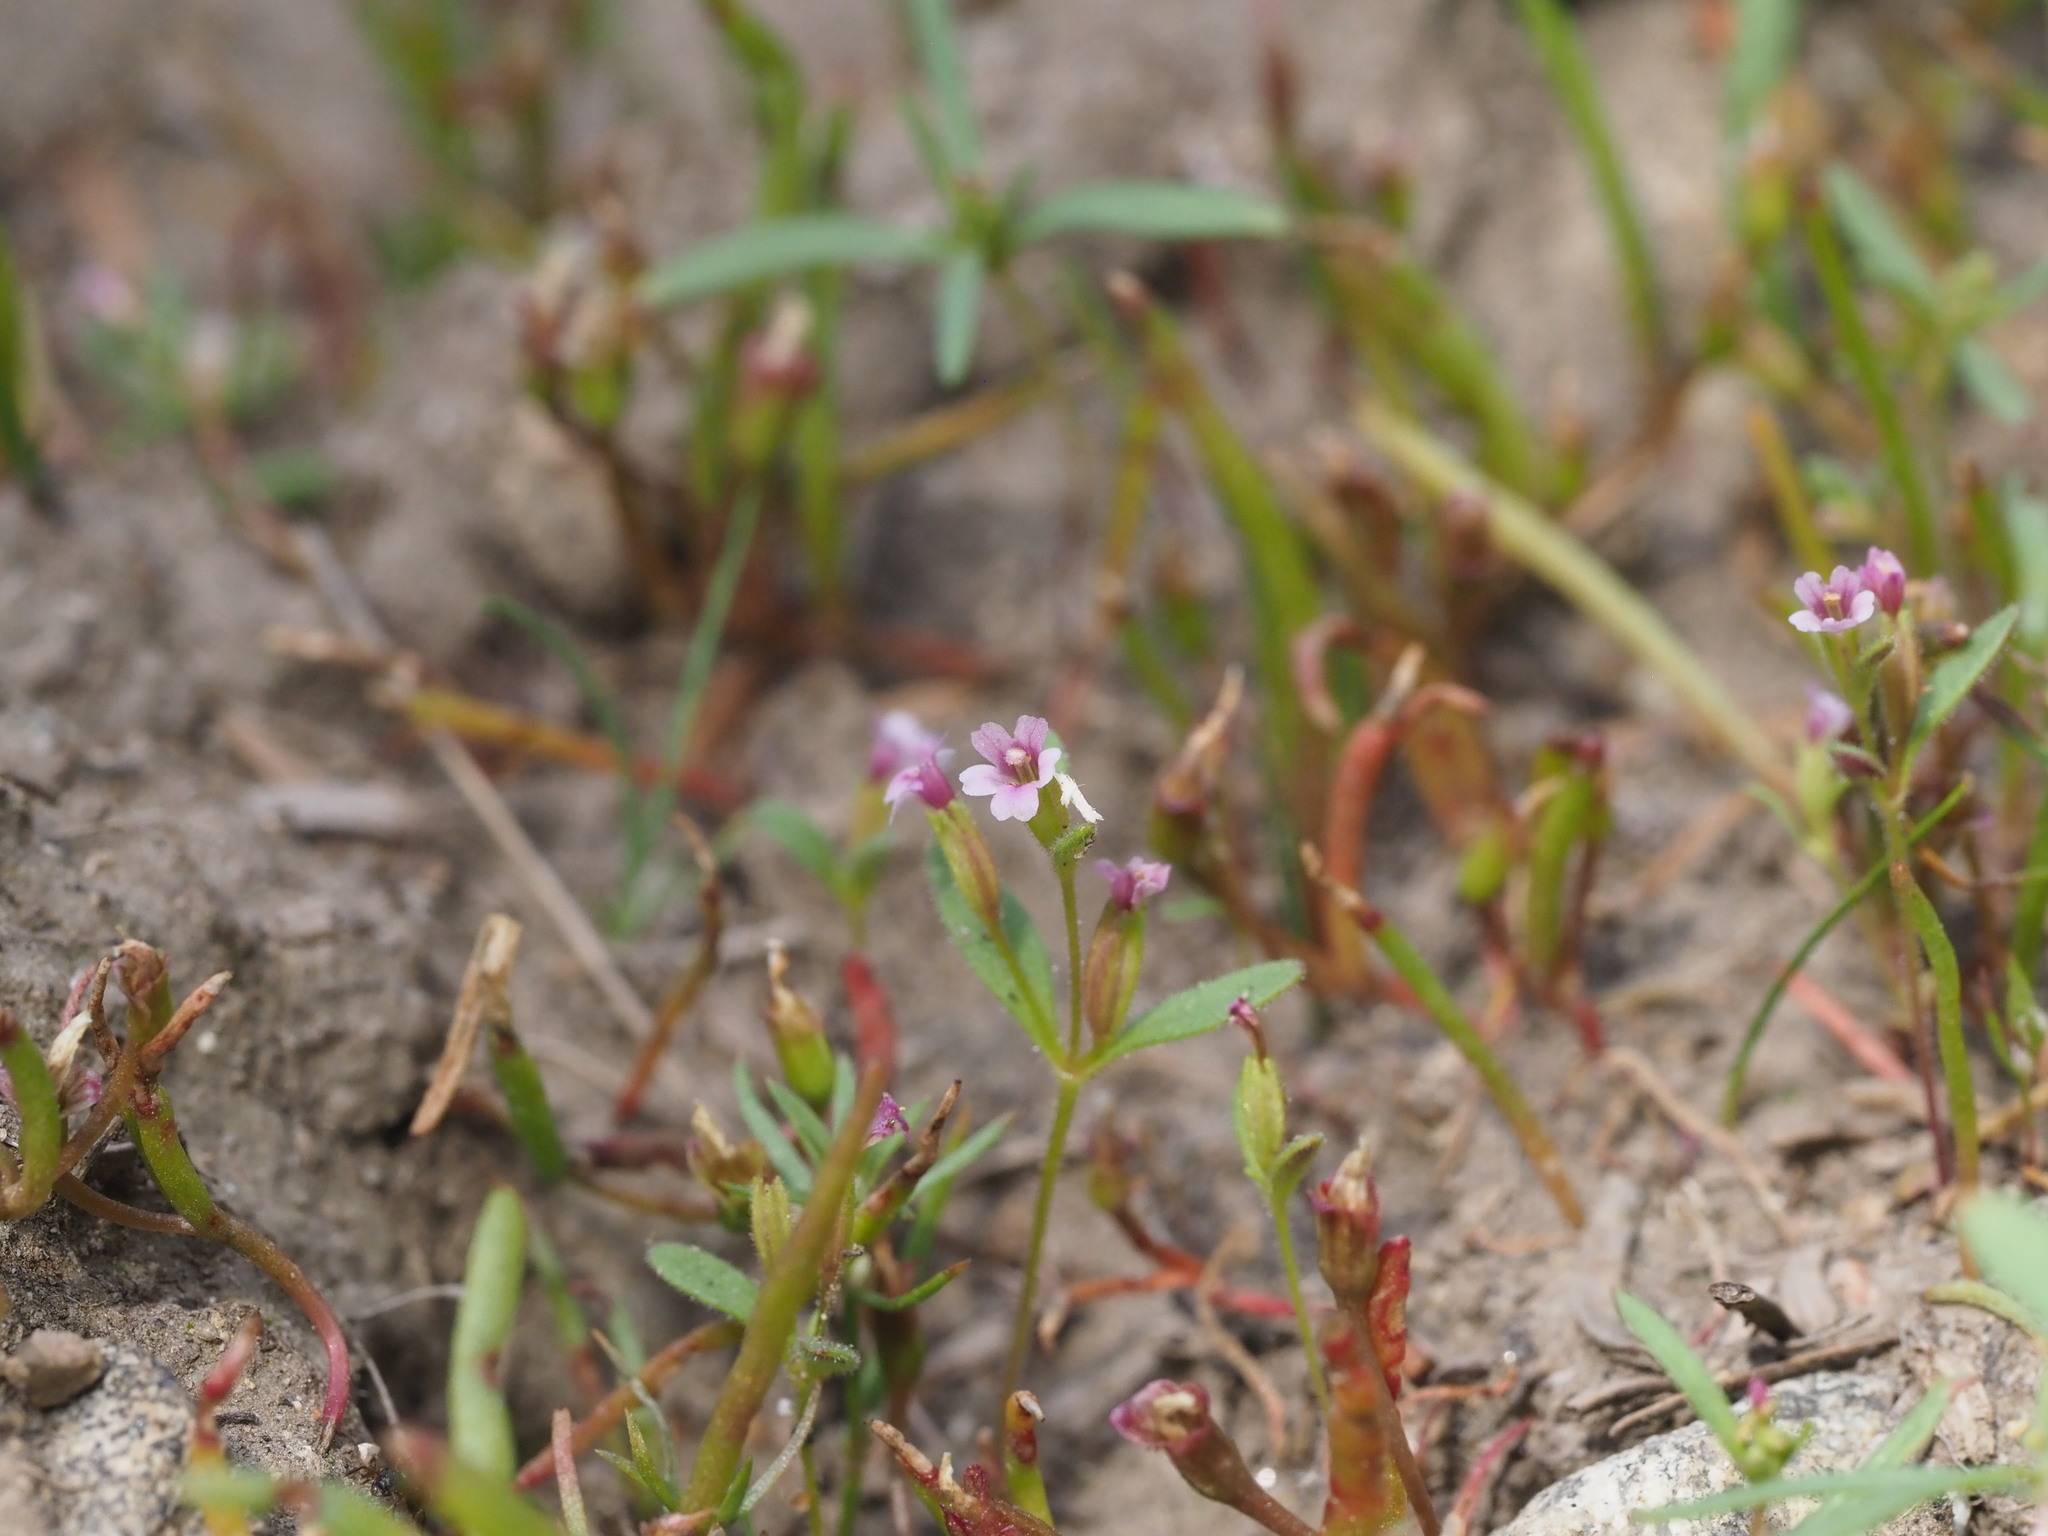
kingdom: Plantae
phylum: Tracheophyta
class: Magnoliopsida
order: Lamiales
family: Phrymaceae
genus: Erythranthe
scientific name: Erythranthe breweri
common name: Brewer's monkeyflower
